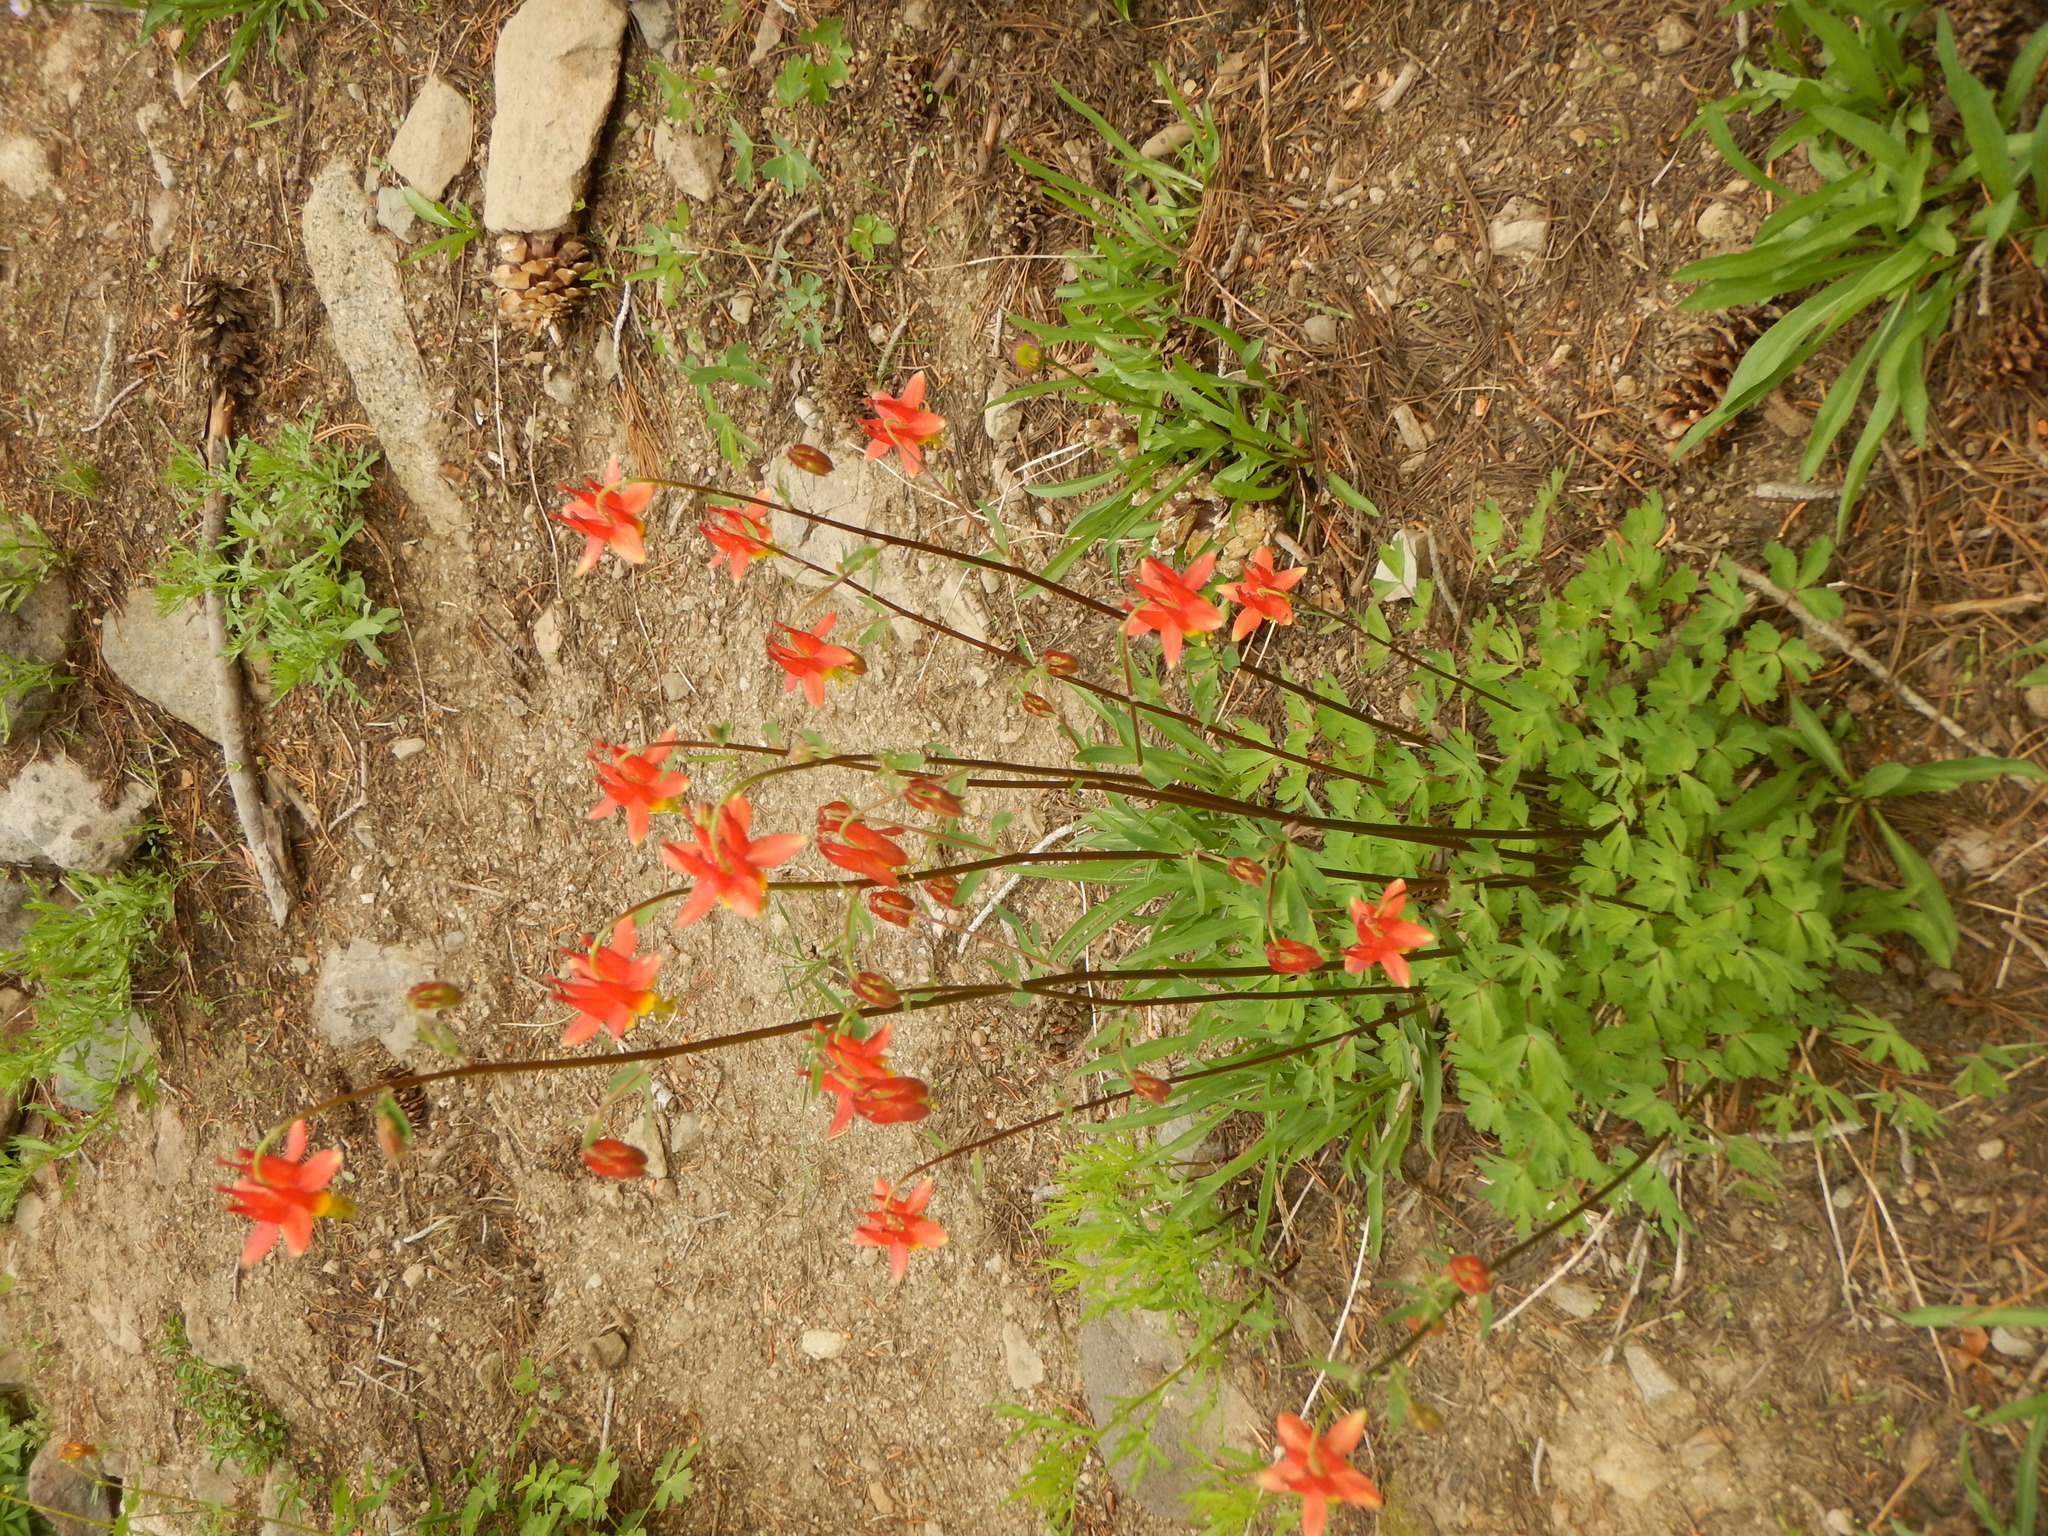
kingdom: Plantae
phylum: Tracheophyta
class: Magnoliopsida
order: Ranunculales
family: Ranunculaceae
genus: Aquilegia
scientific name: Aquilegia formosa
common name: Sitka columbine
